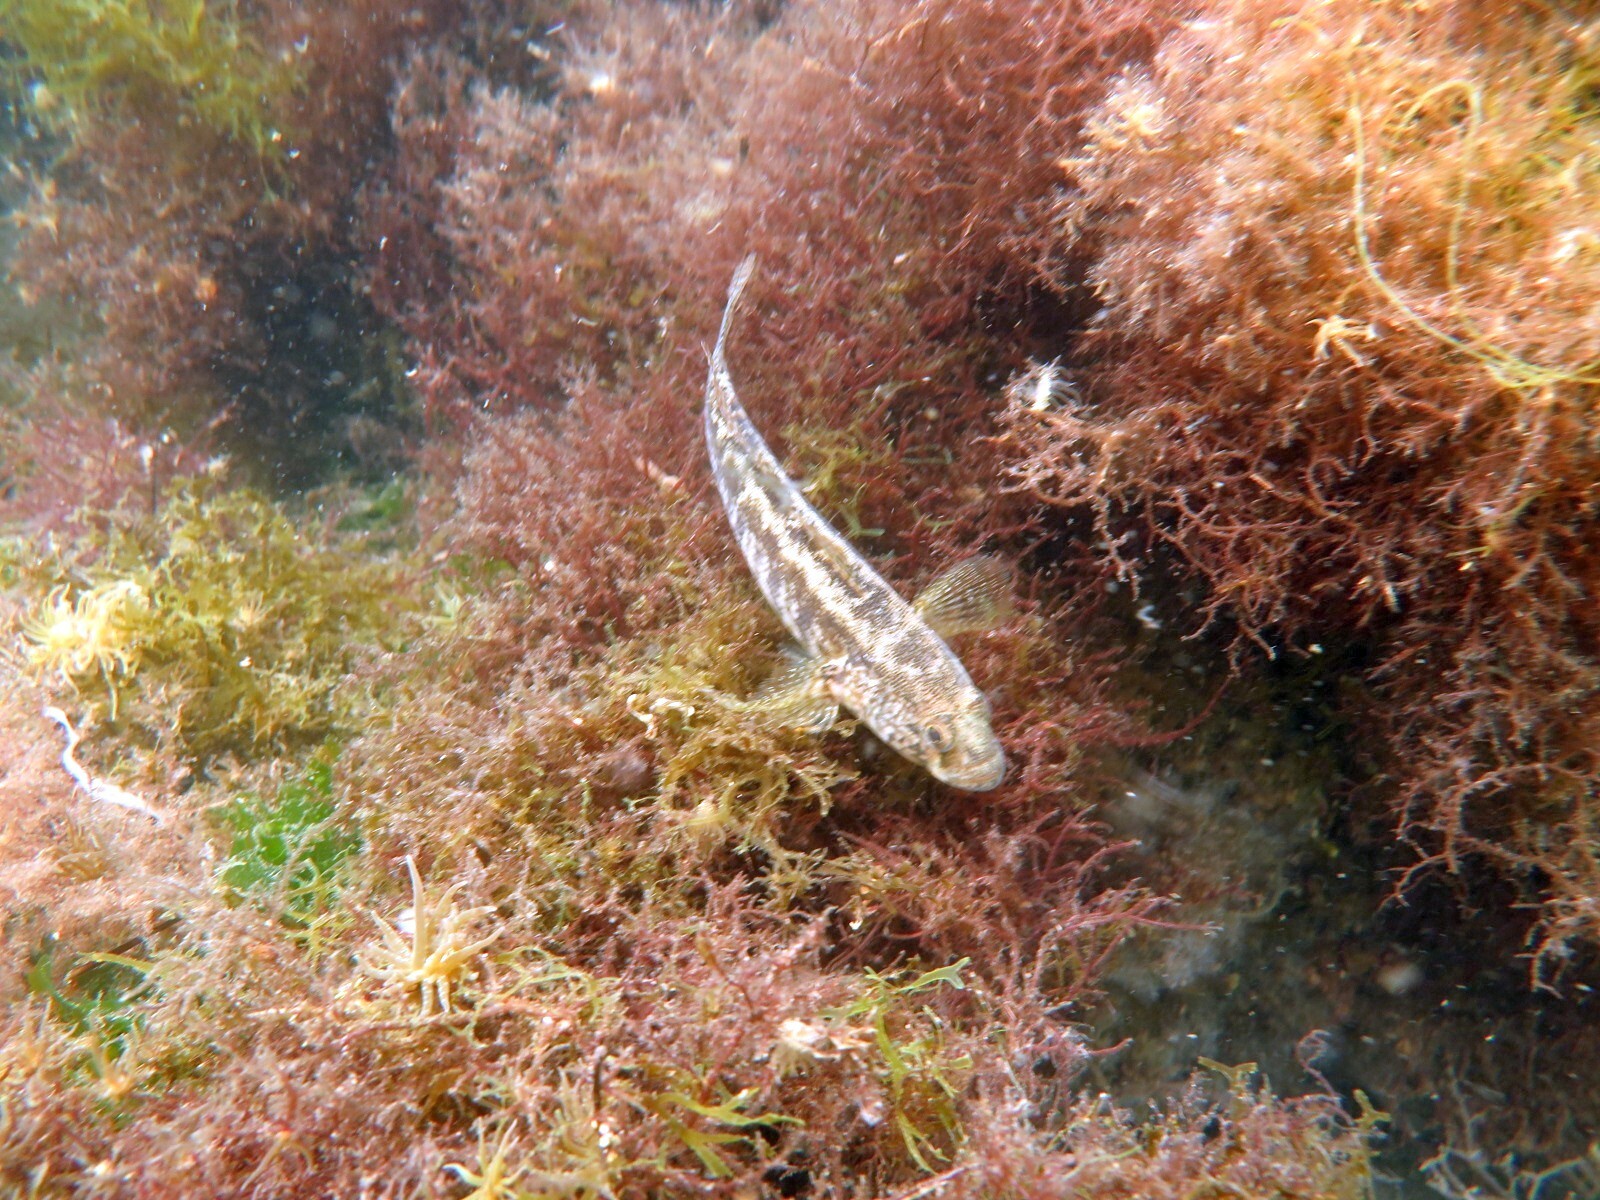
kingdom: Animalia
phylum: Chordata
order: Perciformes
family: Gobiidae
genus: Zosterisessor
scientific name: Zosterisessor ophiocephalus
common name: Grass goby
